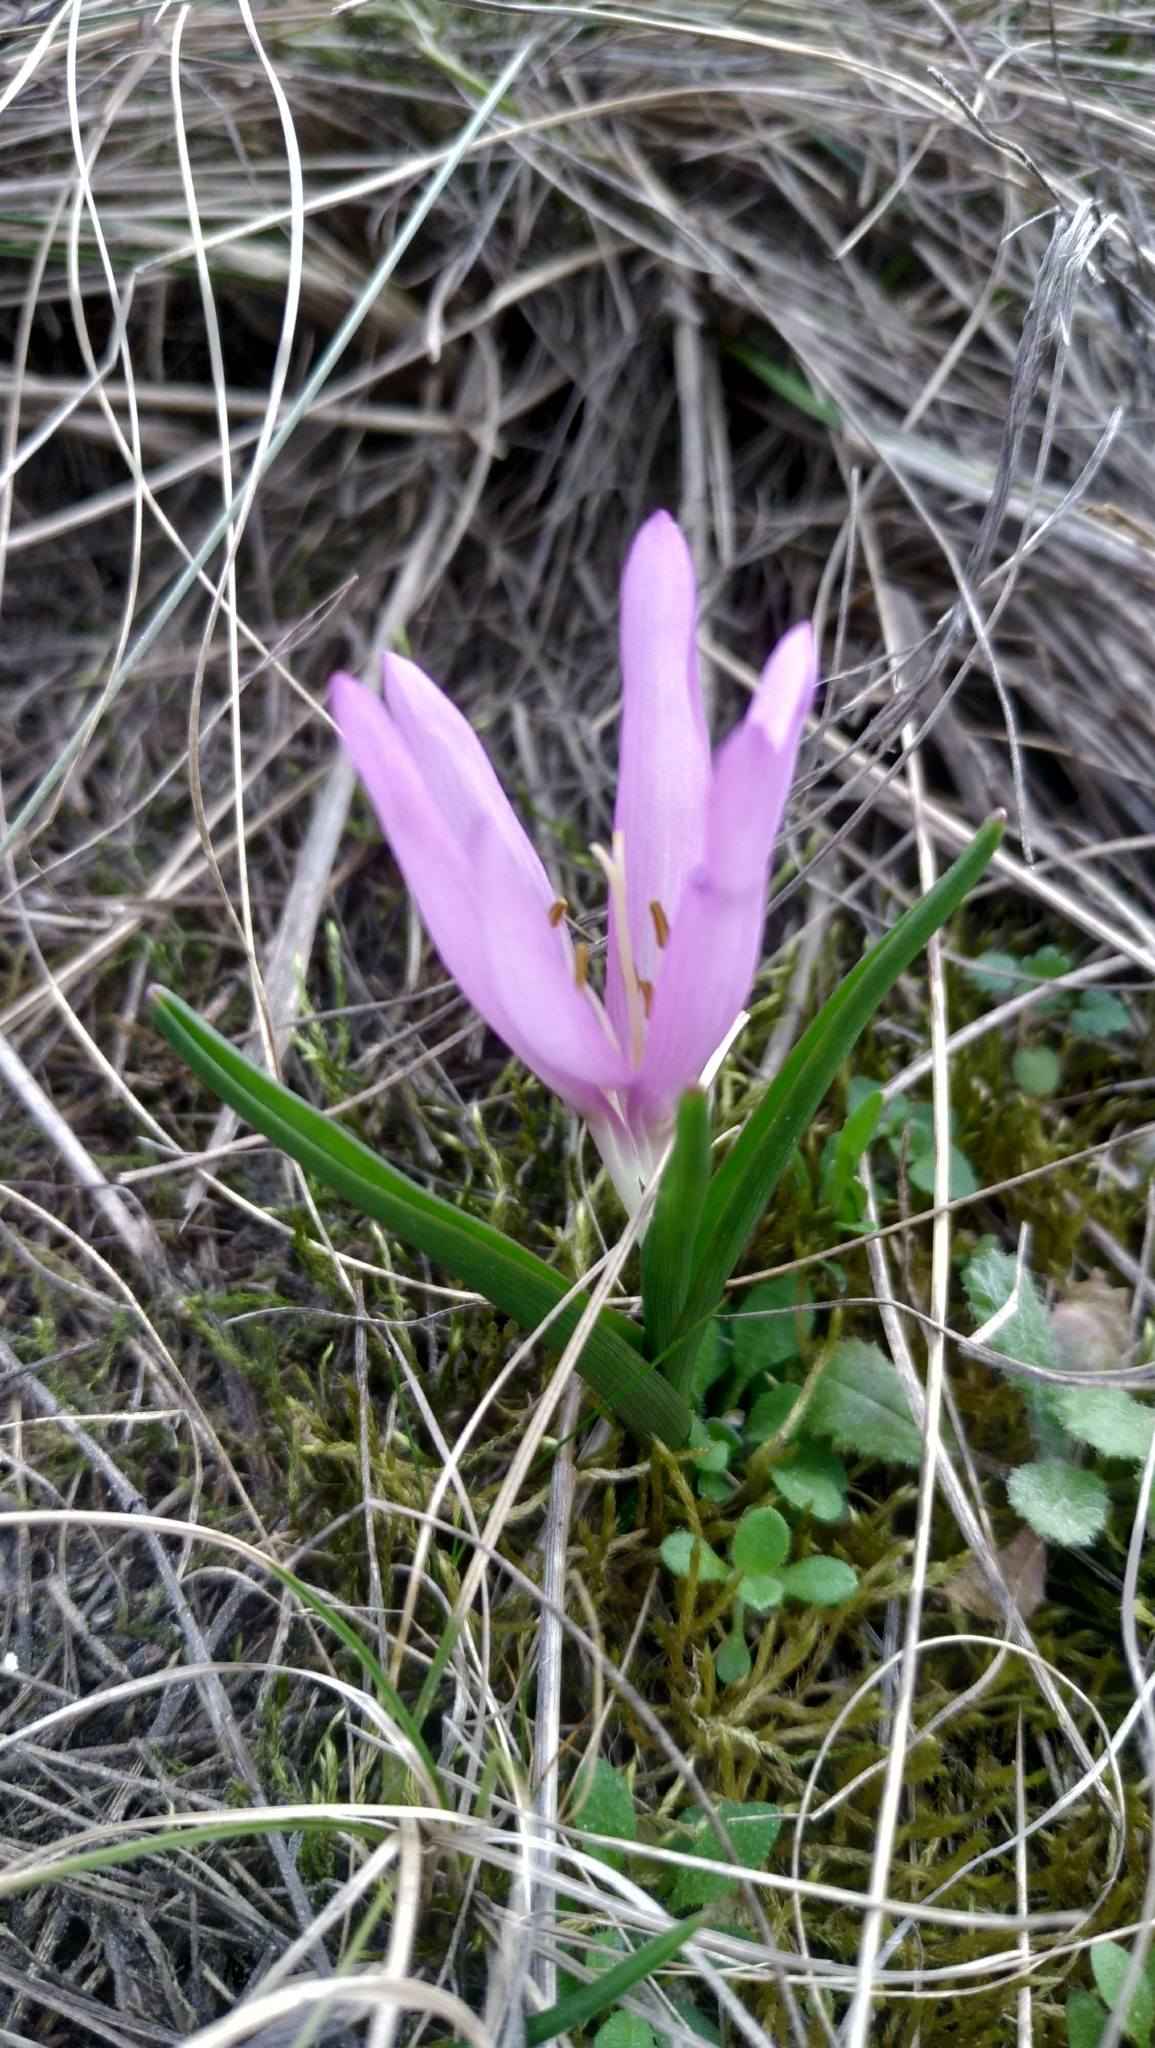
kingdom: Plantae
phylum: Tracheophyta
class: Liliopsida
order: Liliales
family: Colchicaceae
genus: Colchicum
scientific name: Colchicum bulbocodium
